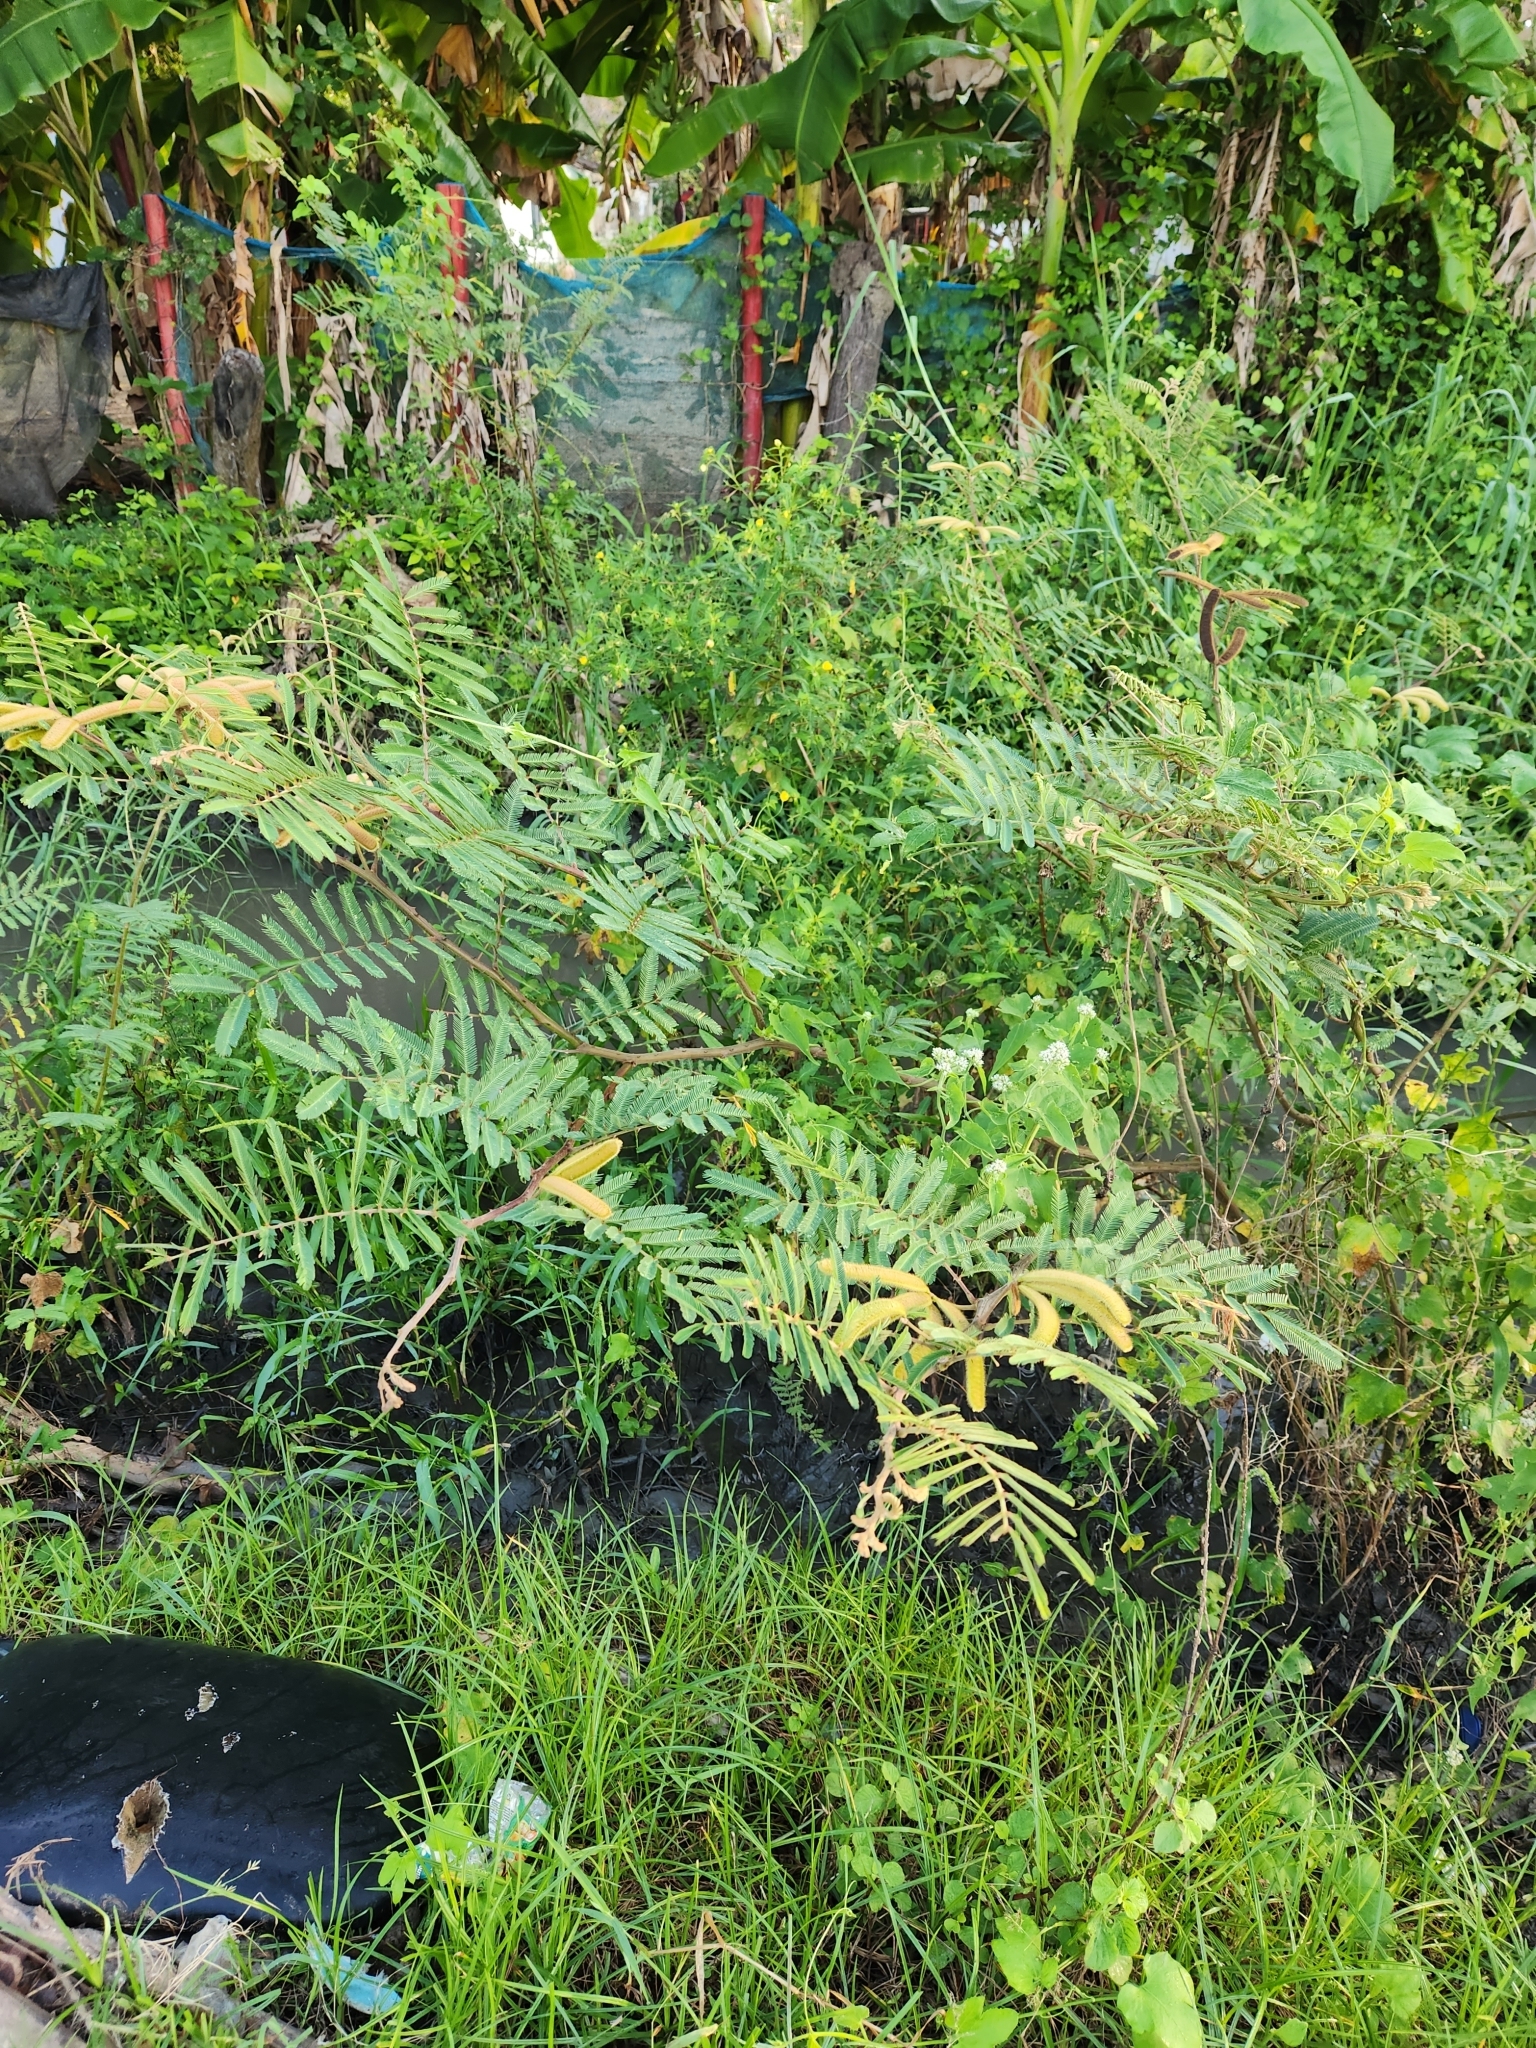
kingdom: Plantae
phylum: Tracheophyta
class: Magnoliopsida
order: Fabales
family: Fabaceae
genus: Mimosa
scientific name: Mimosa pigra
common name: Black mimosa
